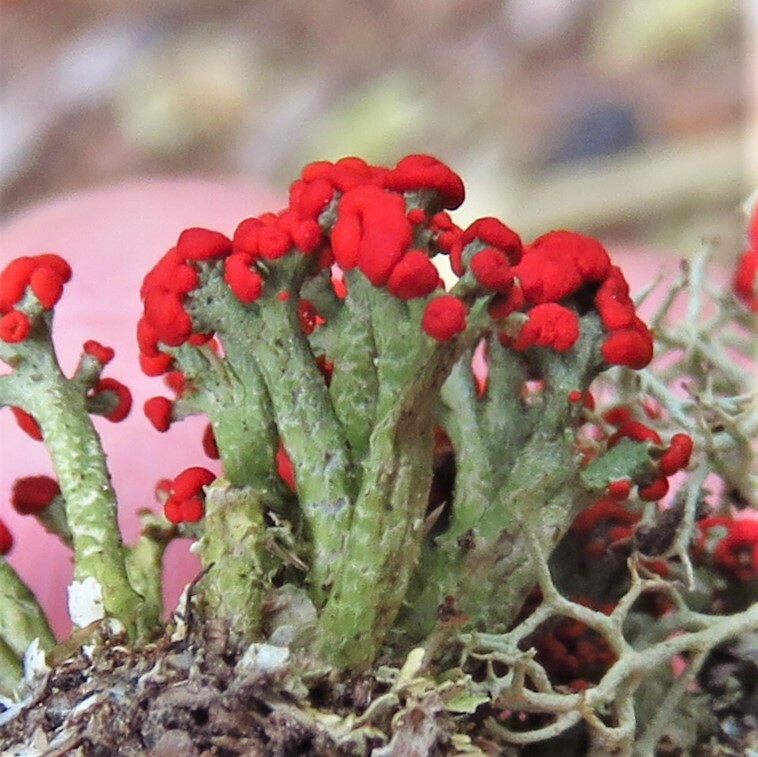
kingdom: Fungi
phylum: Ascomycota
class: Lecanoromycetes
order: Lecanorales
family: Cladoniaceae
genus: Cladonia
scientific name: Cladonia cristatella
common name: British soldier lichen
